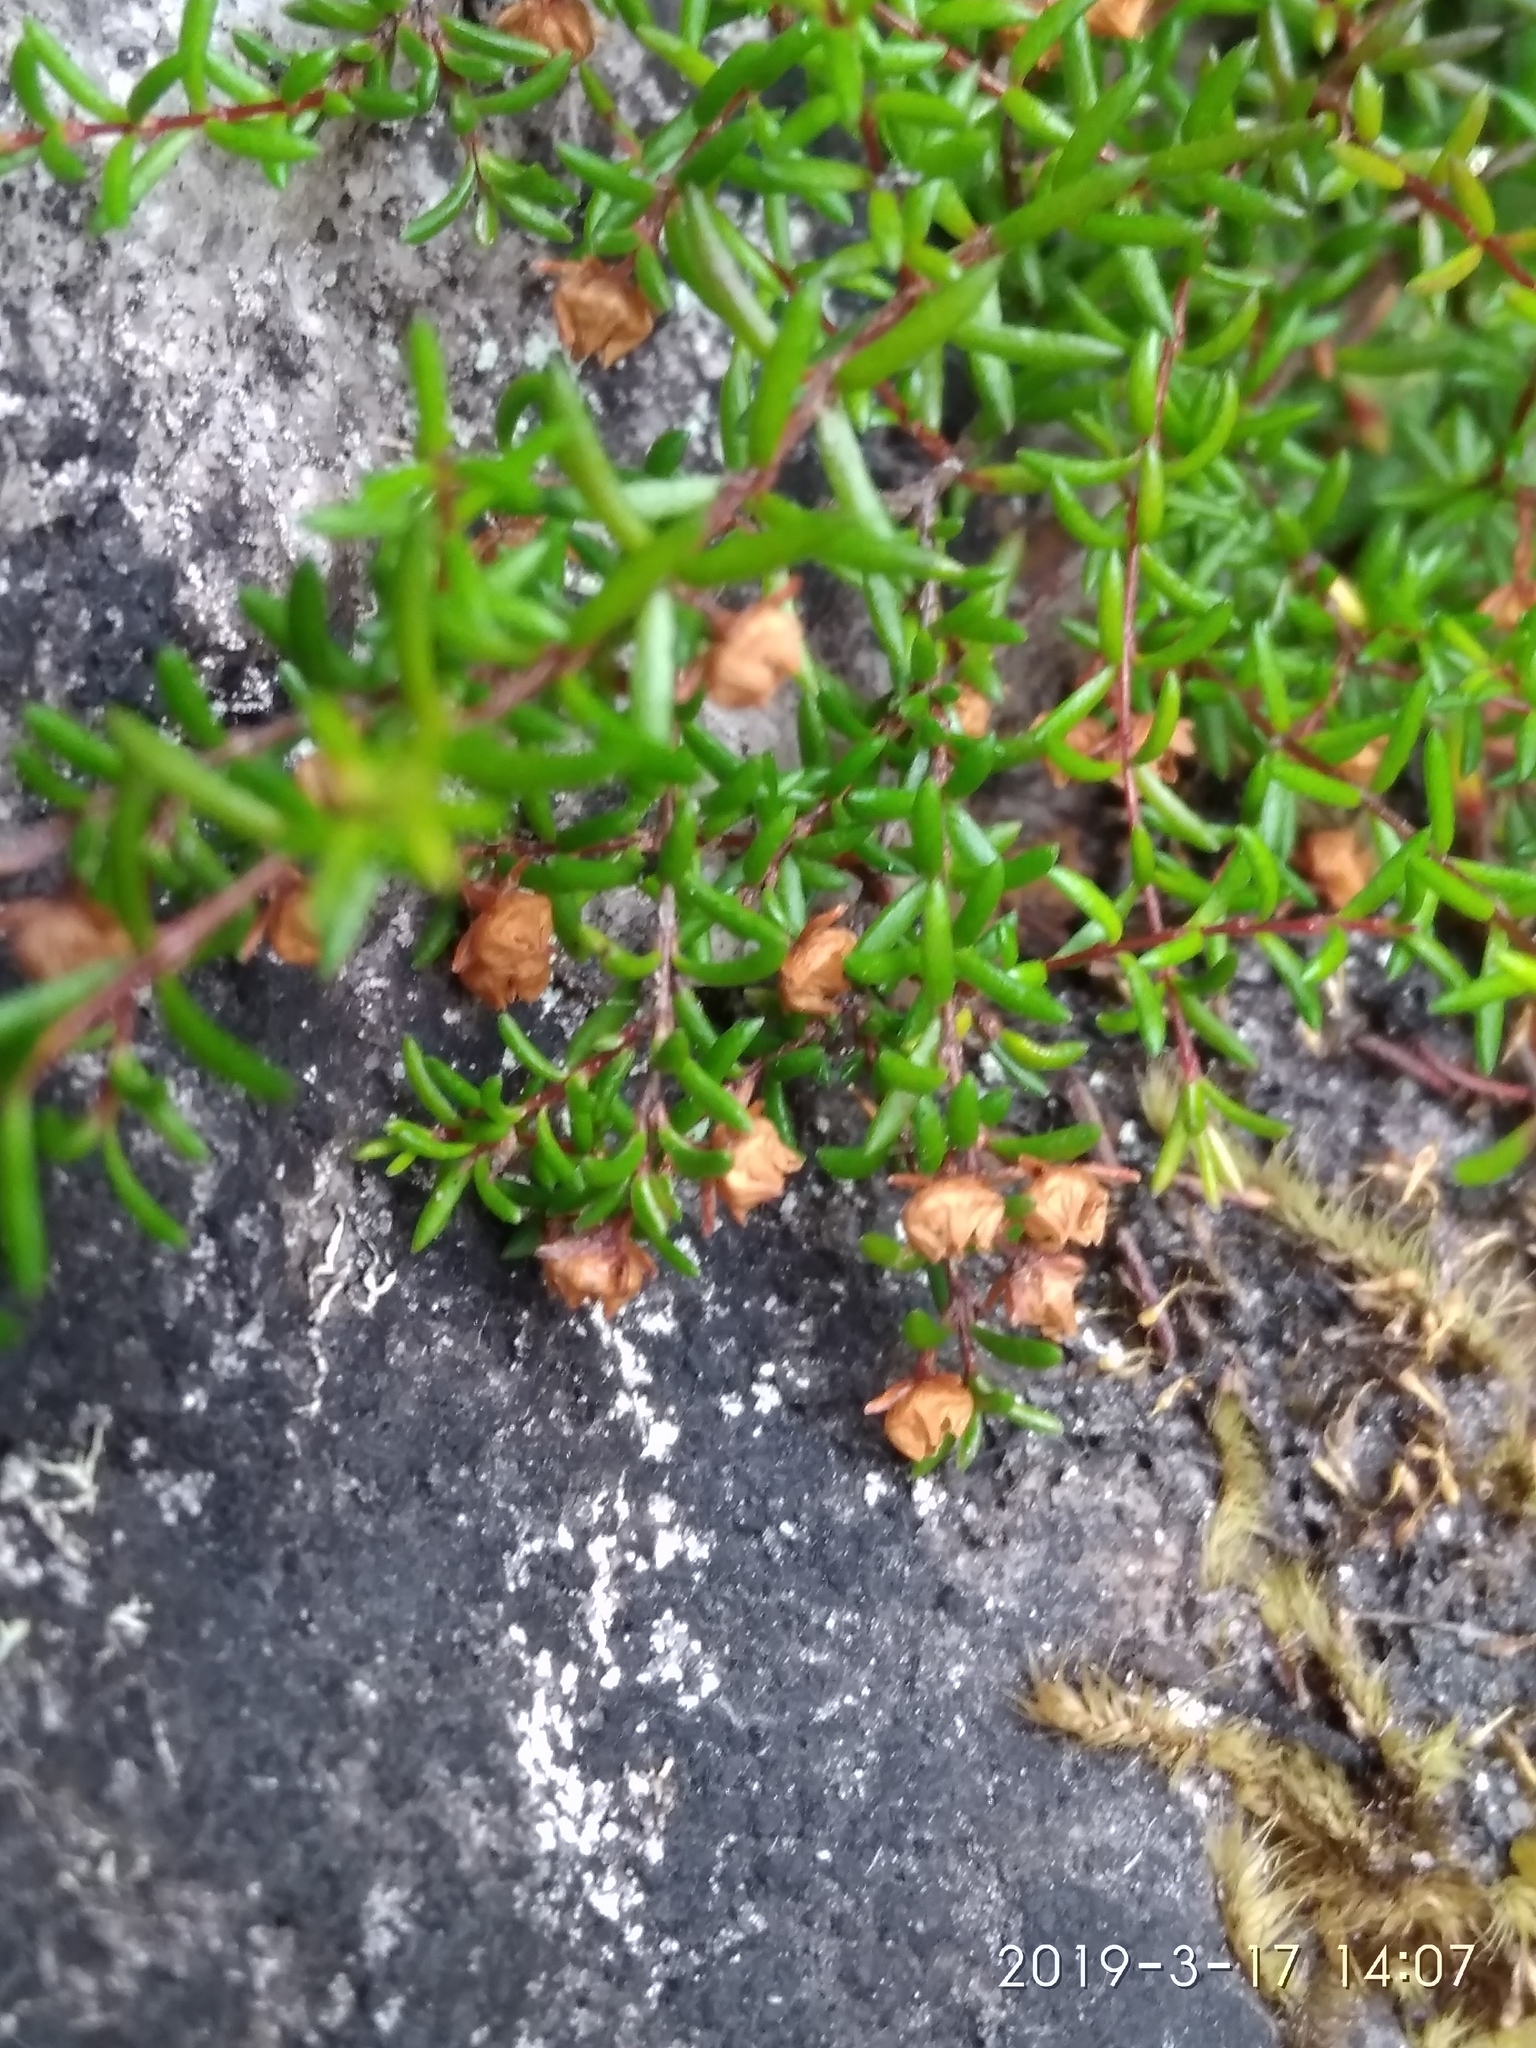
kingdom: Plantae
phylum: Tracheophyta
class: Magnoliopsida
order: Ericales
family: Ericaceae
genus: Erica
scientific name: Erica tenuis
